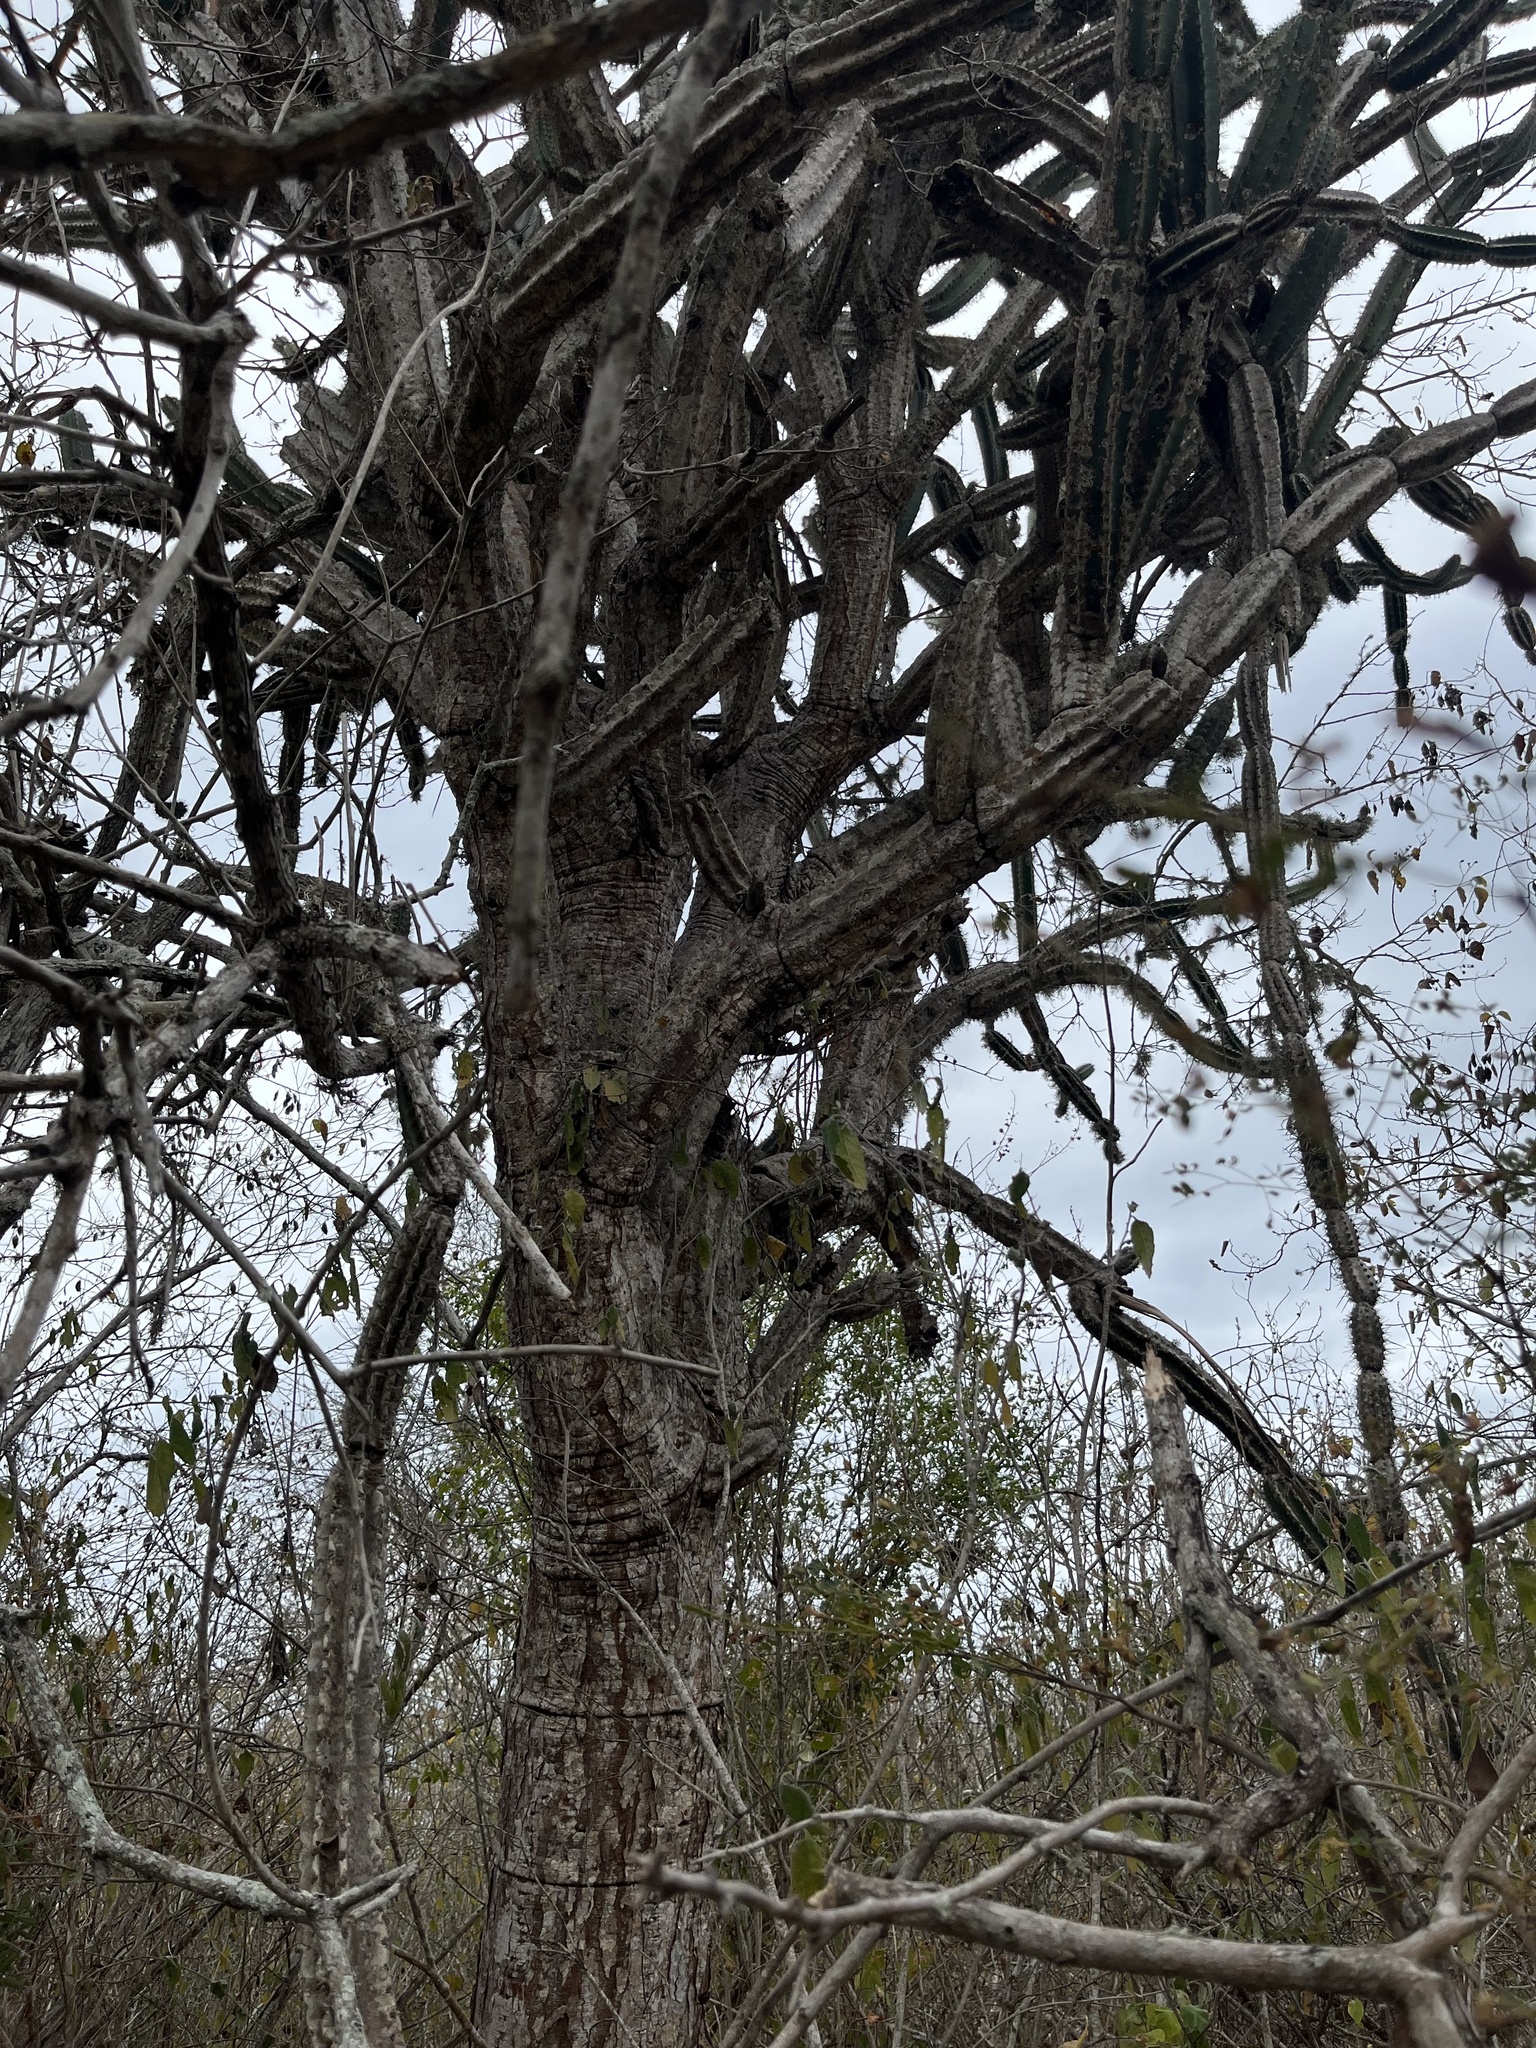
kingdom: Plantae
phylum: Tracheophyta
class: Magnoliopsida
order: Caryophyllales
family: Cactaceae
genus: Armatocereus
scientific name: Armatocereus cartwrightianus
